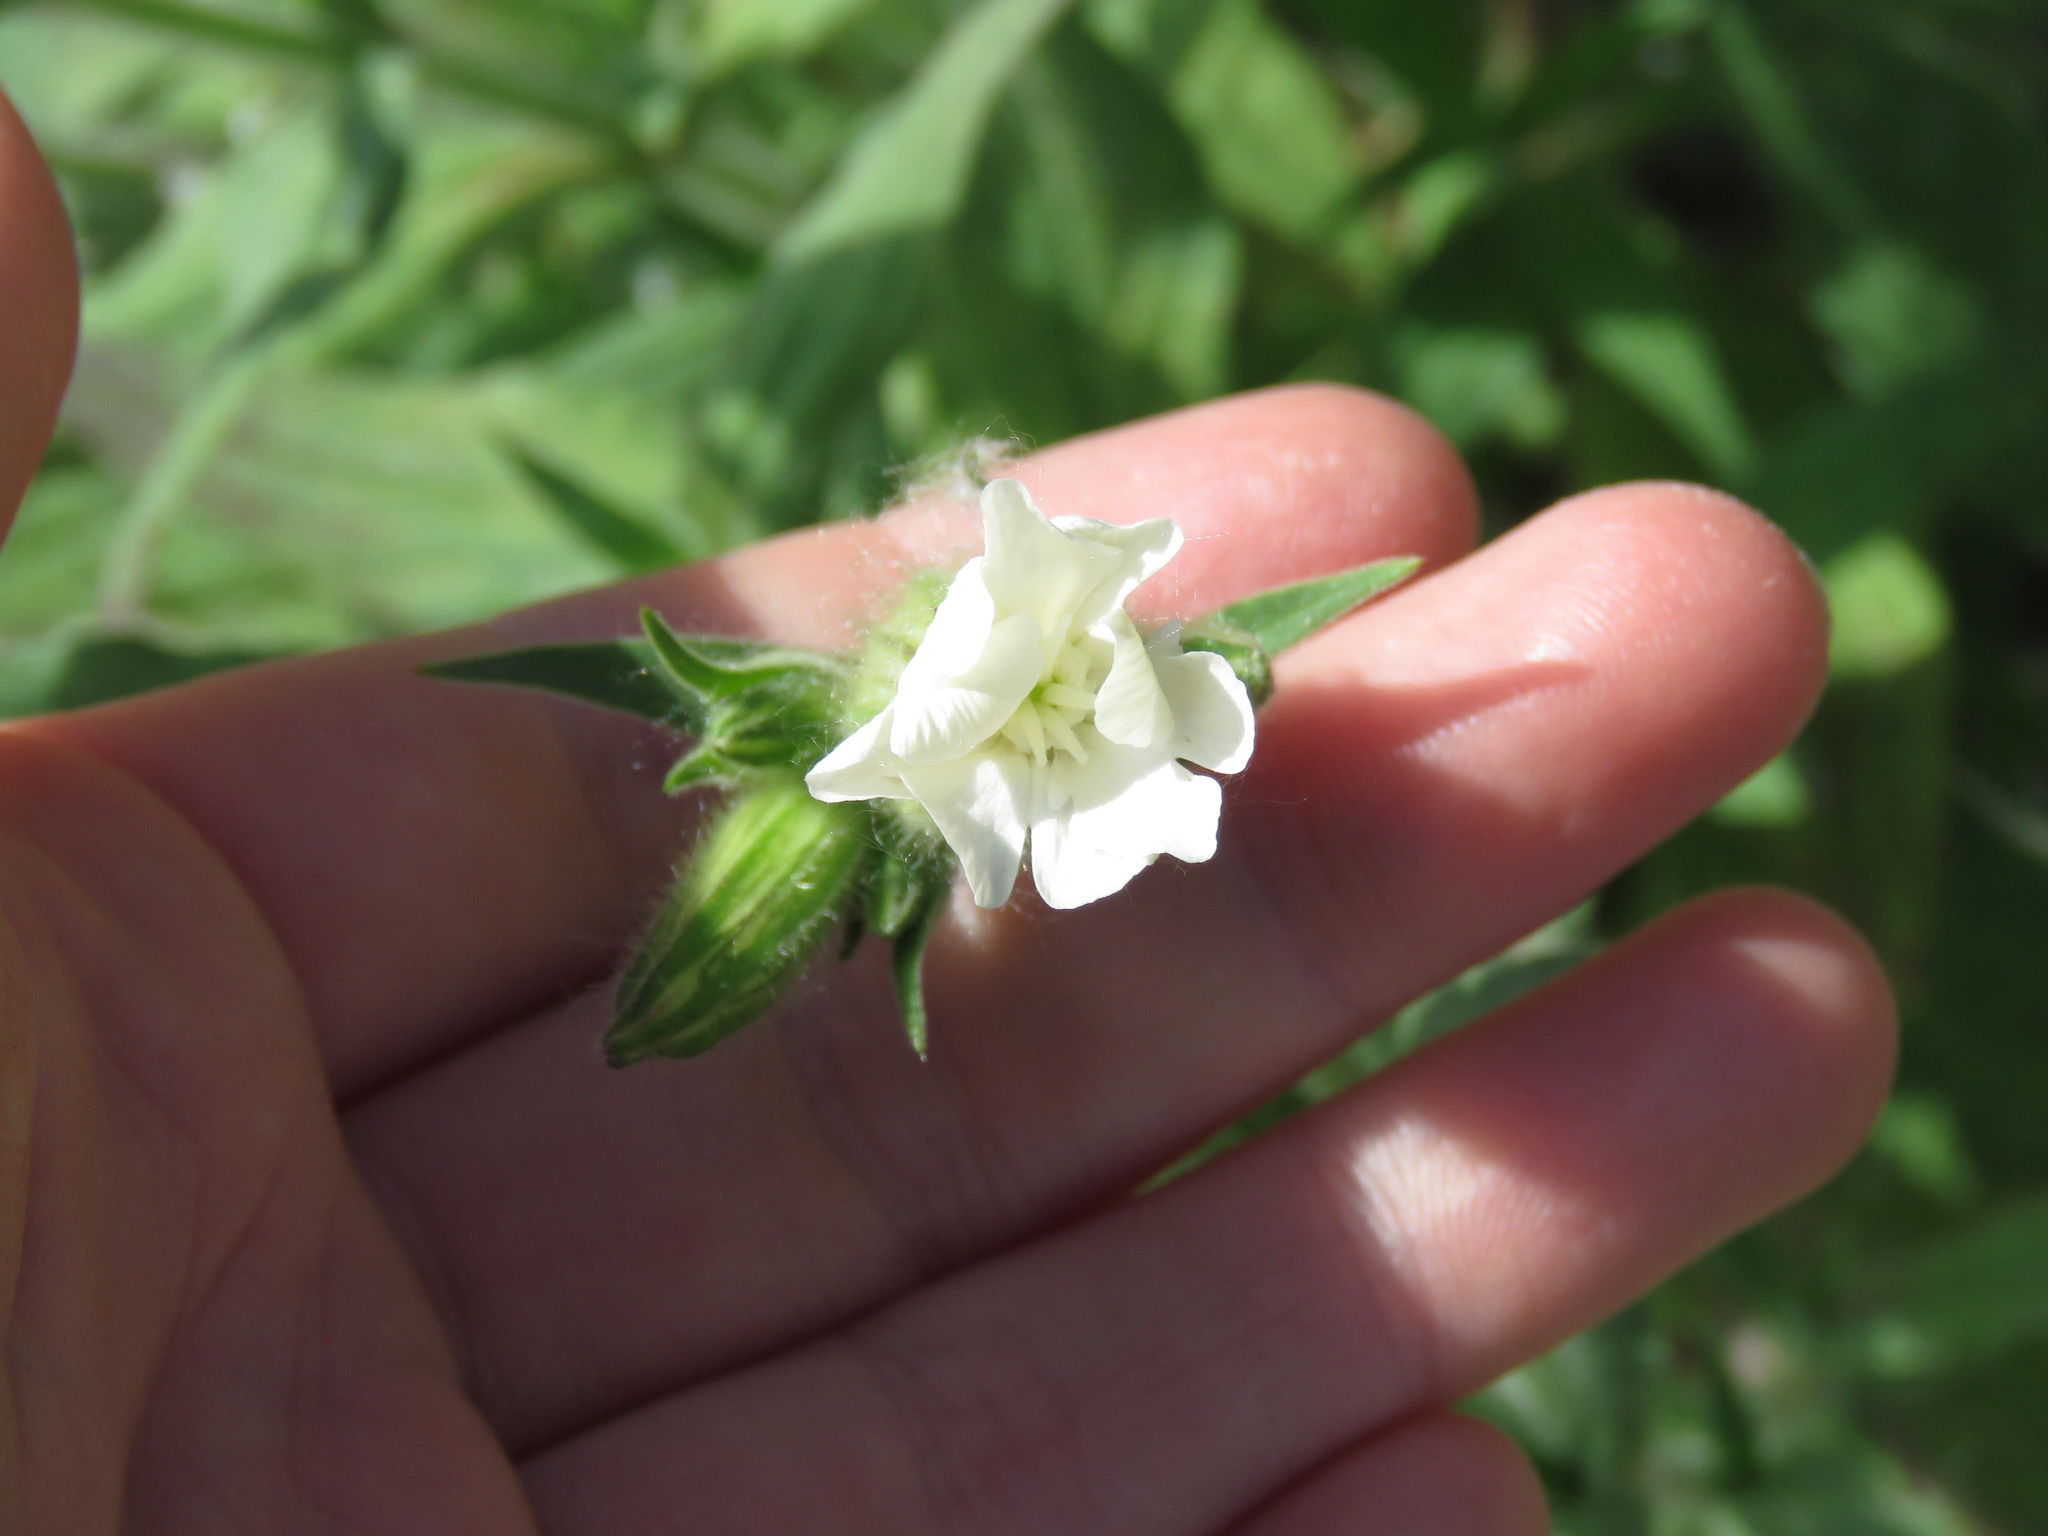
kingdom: Plantae
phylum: Tracheophyta
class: Magnoliopsida
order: Caryophyllales
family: Caryophyllaceae
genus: Silene
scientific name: Silene latifolia
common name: White campion
